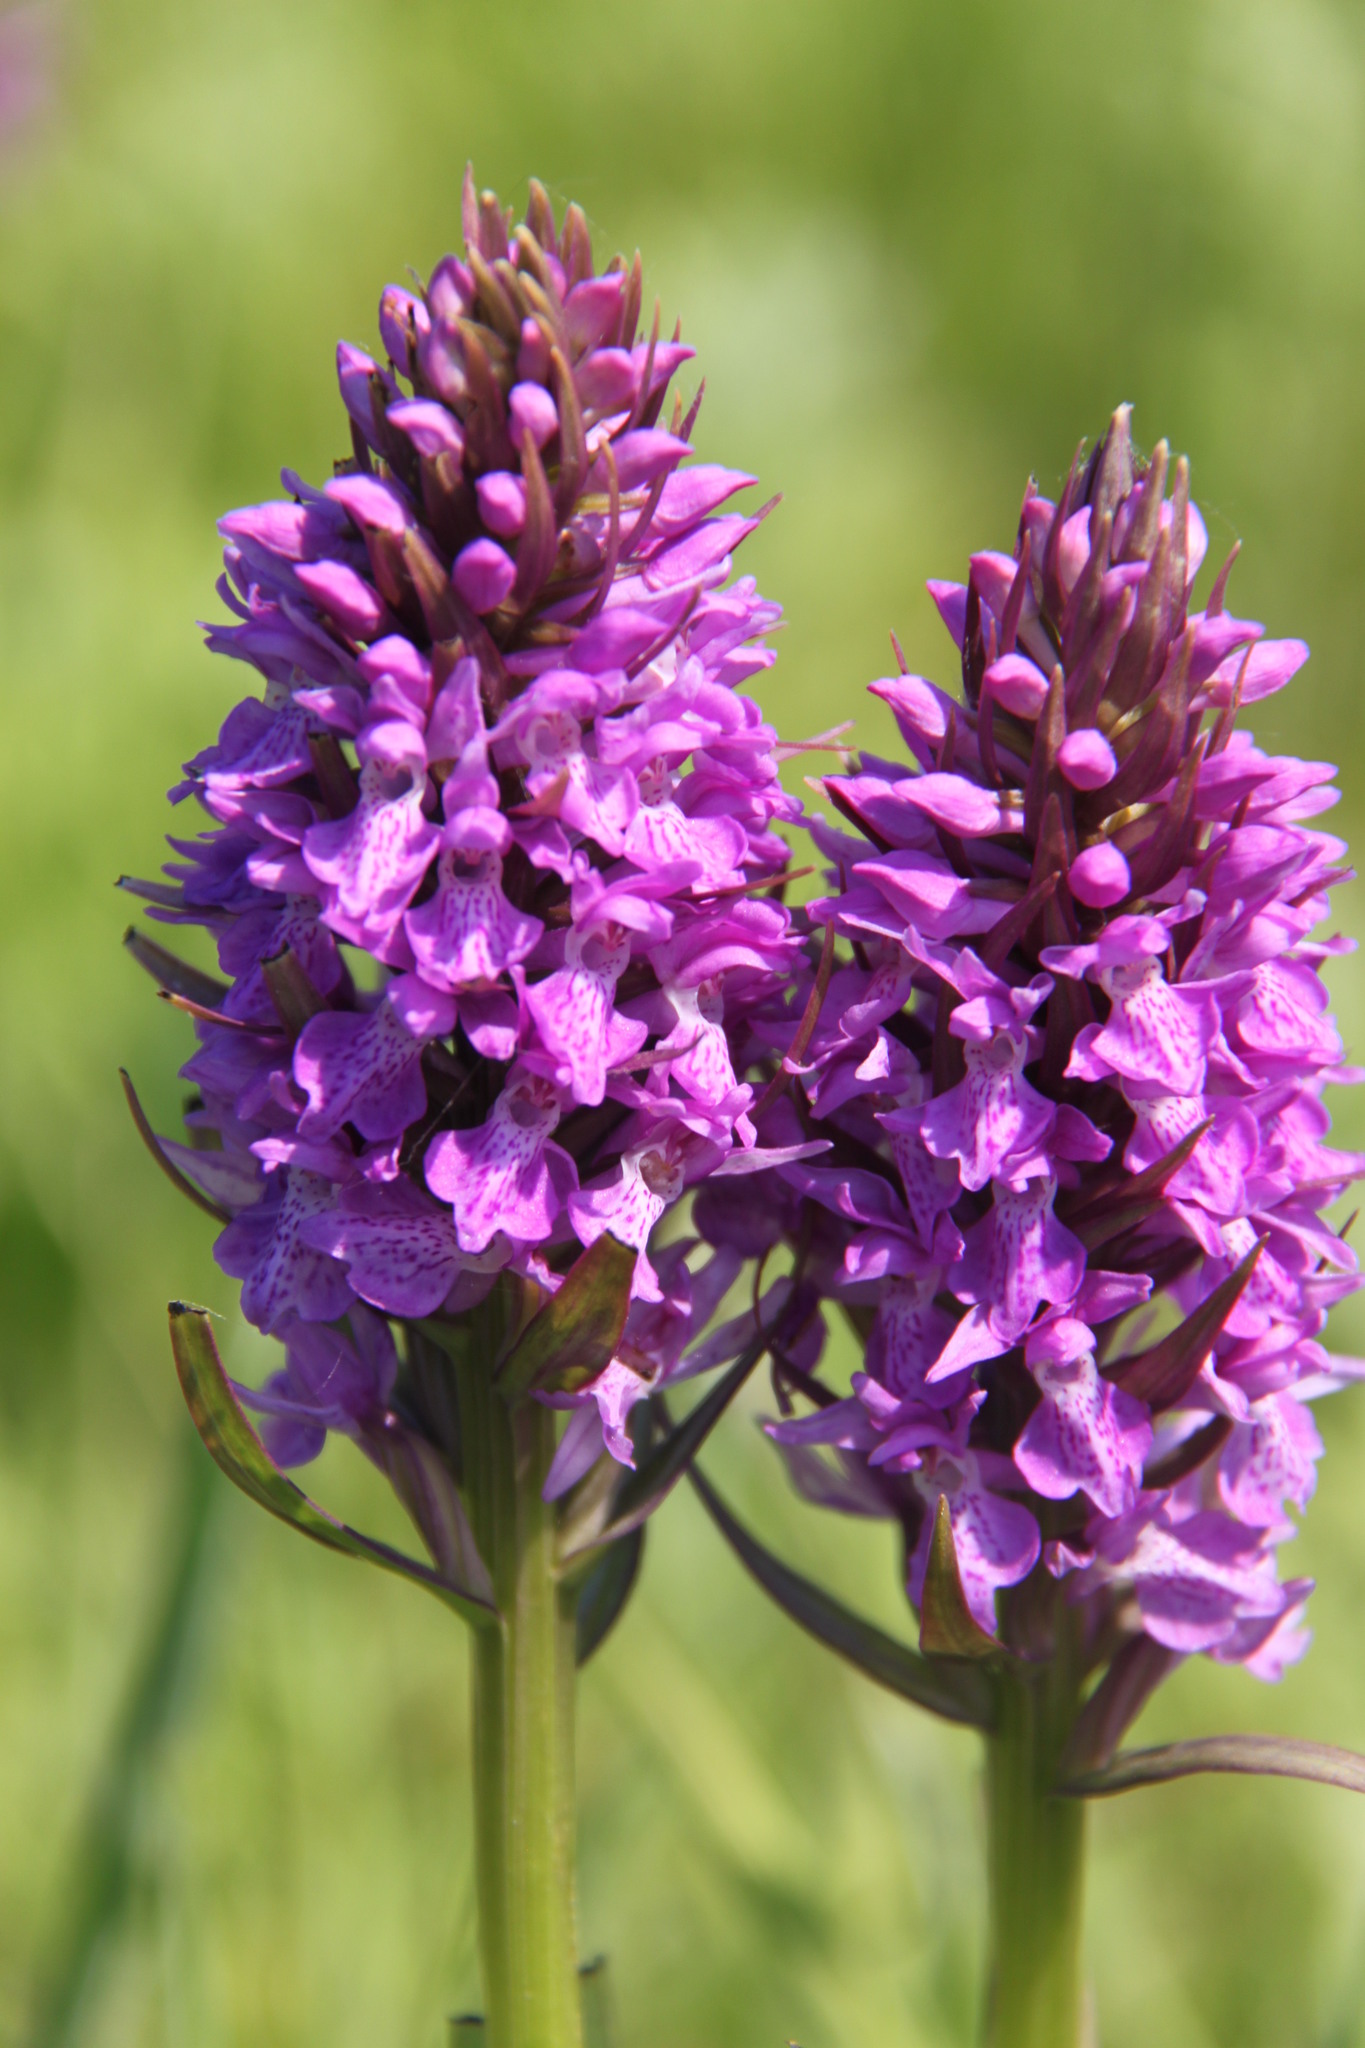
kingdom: Plantae
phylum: Tracheophyta
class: Liliopsida
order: Asparagales
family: Orchidaceae
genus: Dactylorhiza
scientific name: Dactylorhiza majalis
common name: Marsh orchid
